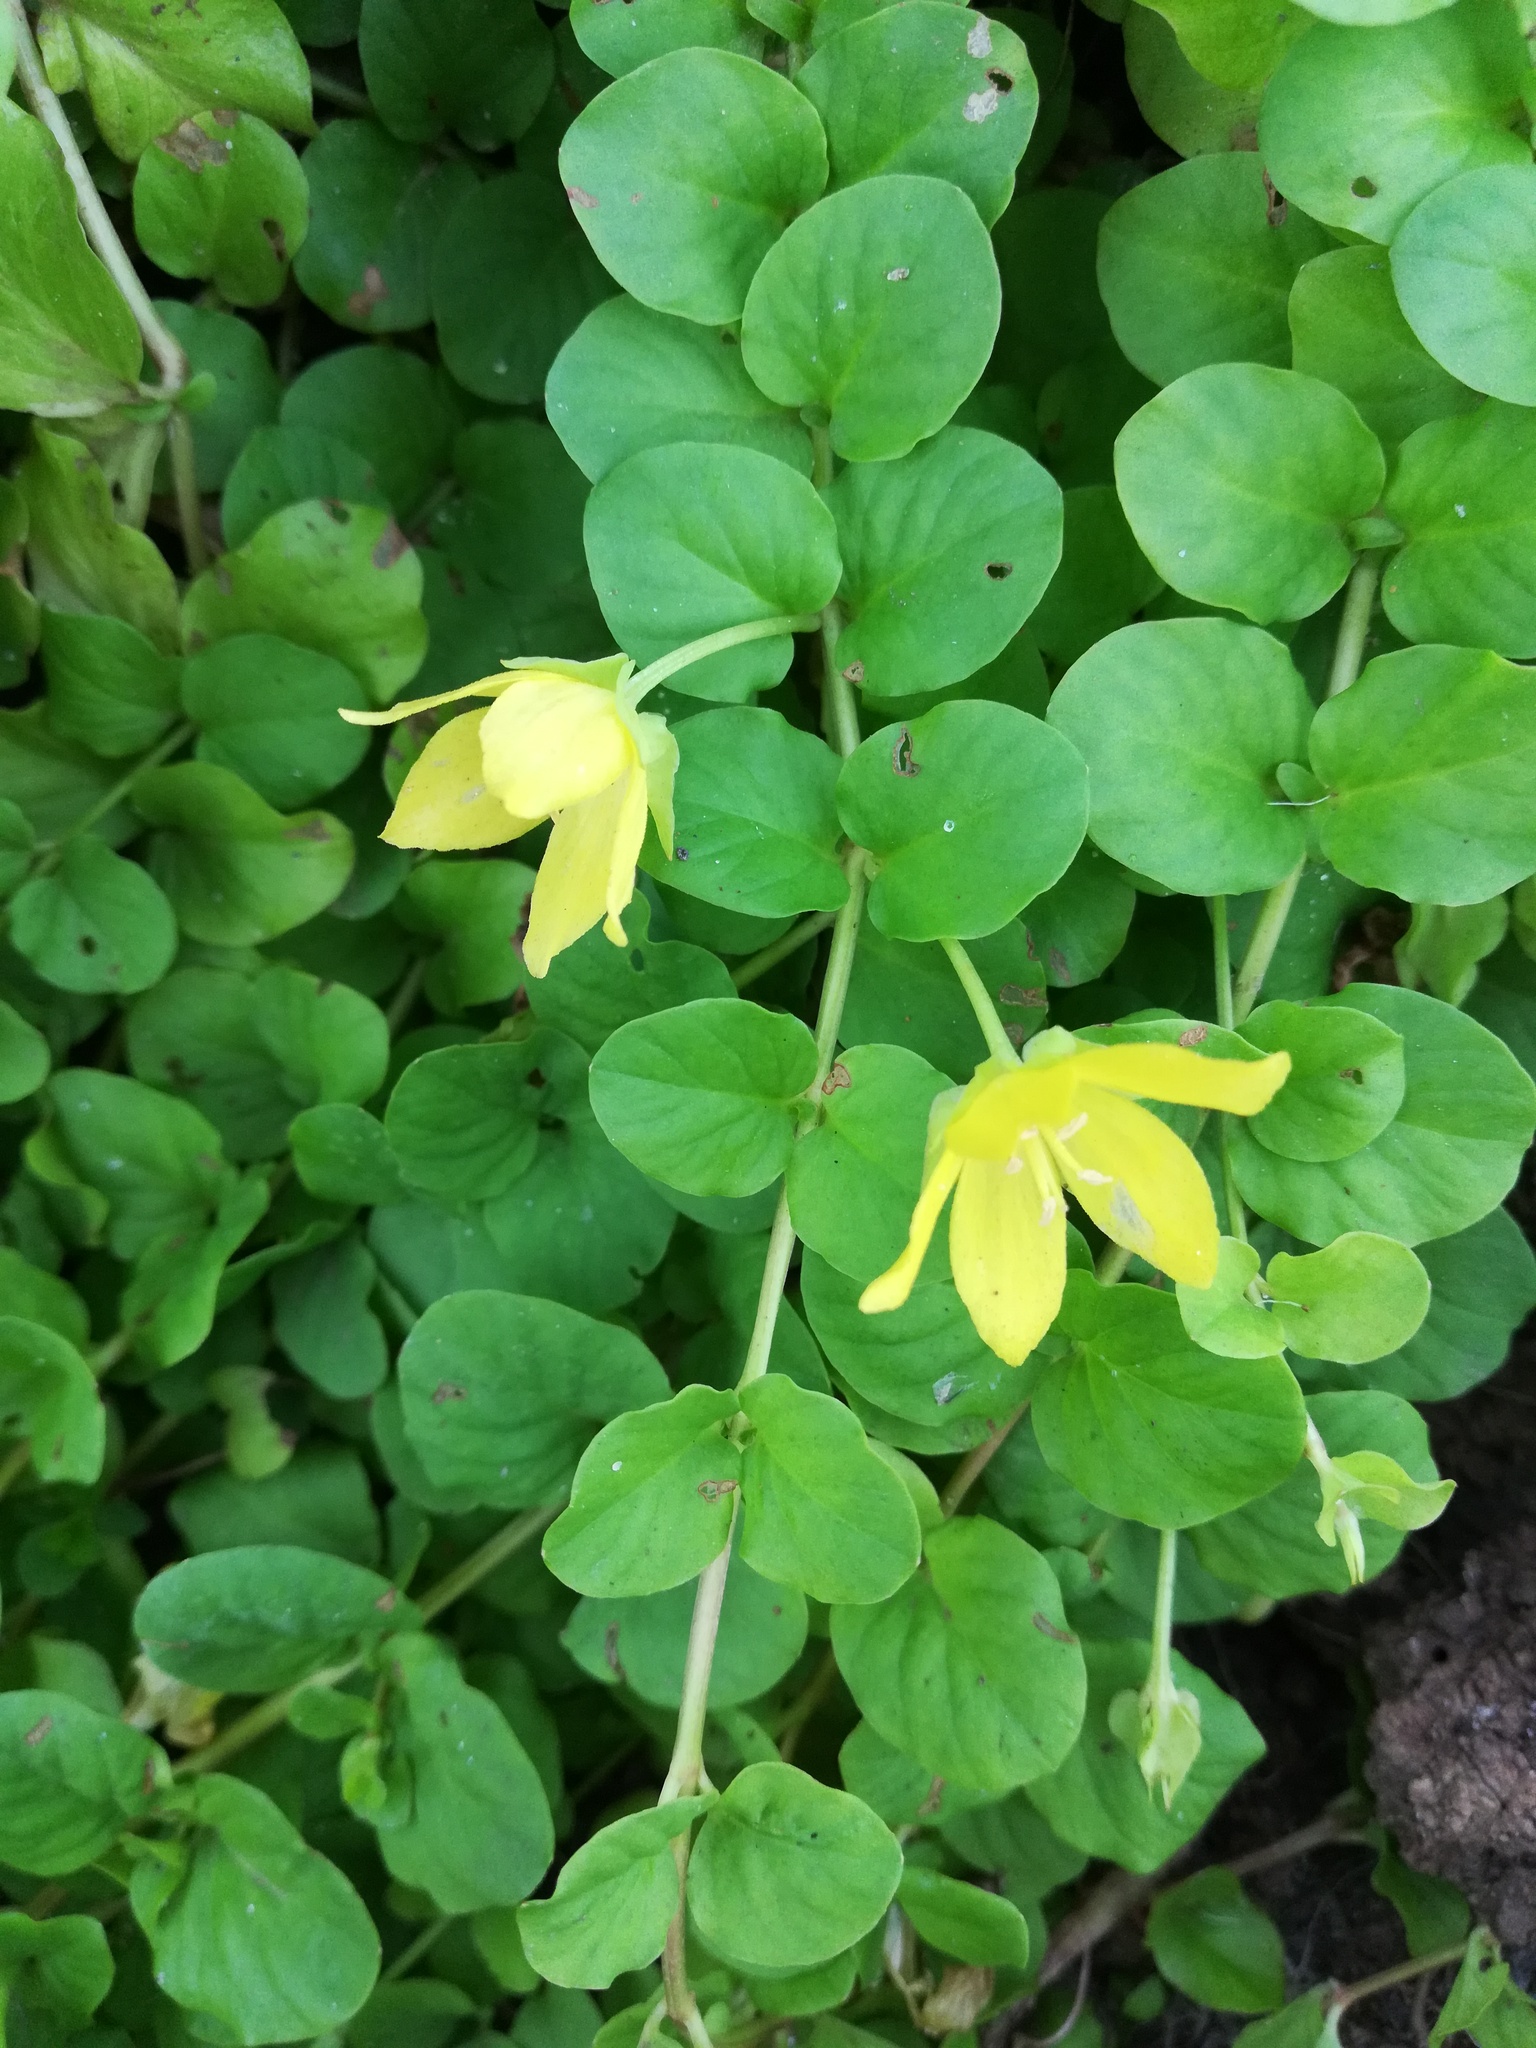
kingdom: Plantae
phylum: Tracheophyta
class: Magnoliopsida
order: Ericales
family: Primulaceae
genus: Lysimachia
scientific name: Lysimachia nummularia
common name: Moneywort
